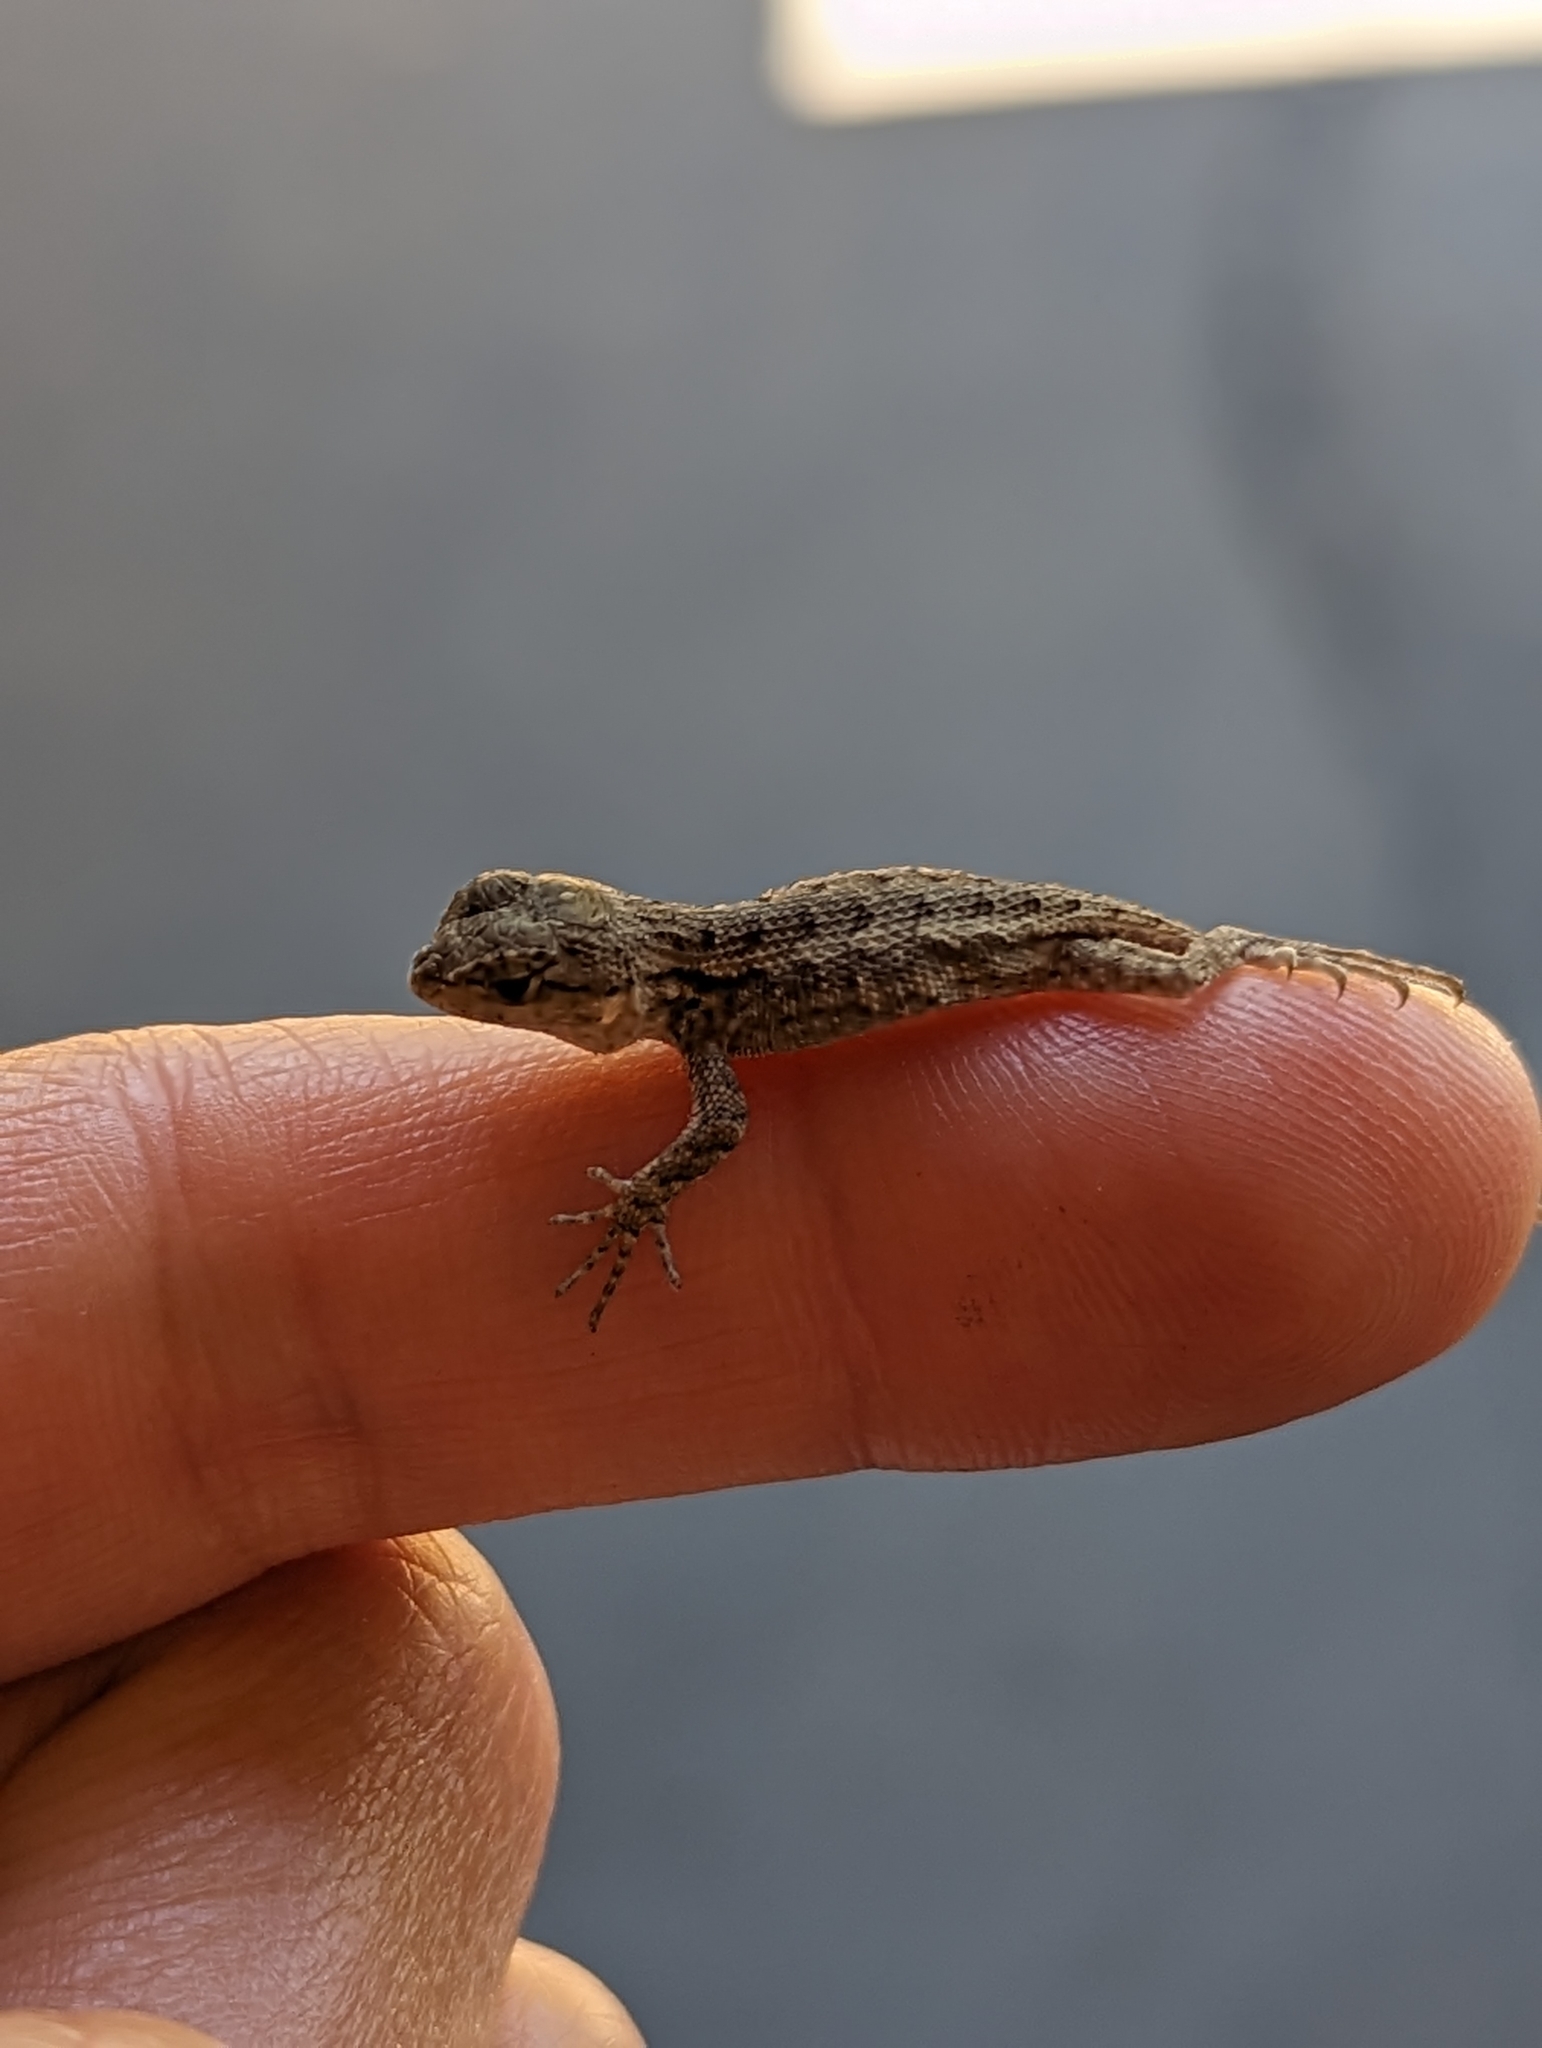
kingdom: Animalia
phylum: Chordata
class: Squamata
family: Phrynosomatidae
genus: Sceloporus
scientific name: Sceloporus occidentalis
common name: Western fence lizard
